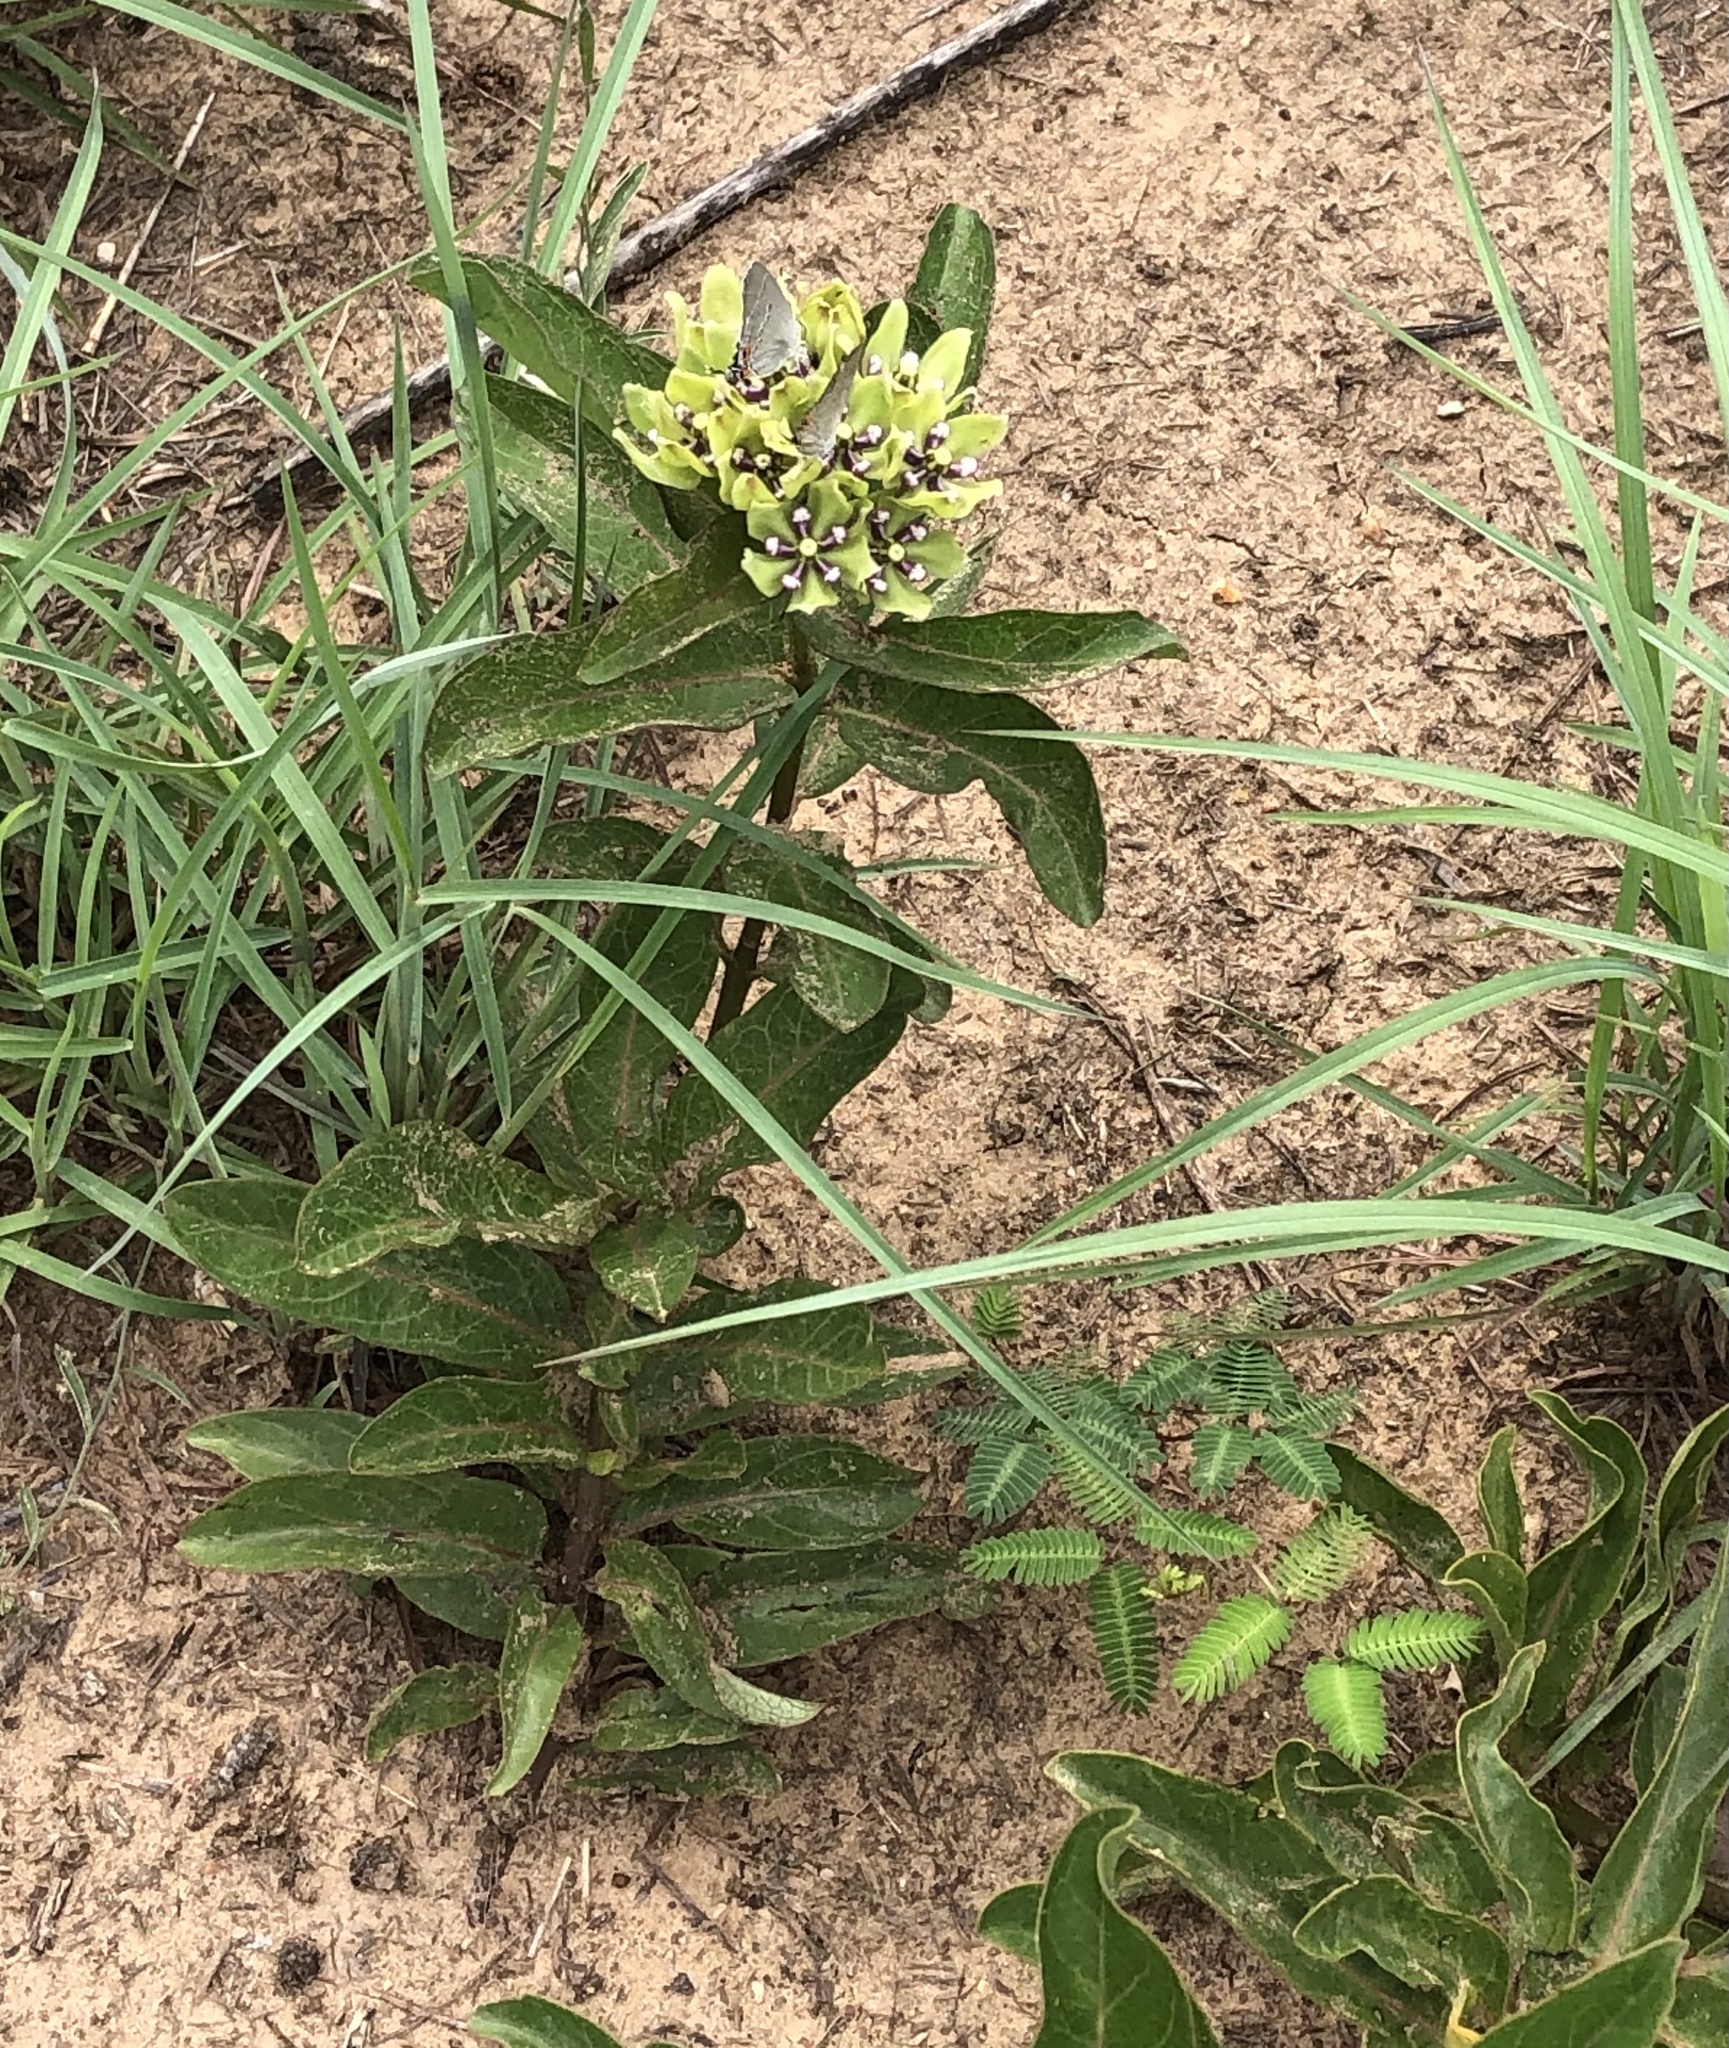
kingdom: Plantae
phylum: Tracheophyta
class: Magnoliopsida
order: Gentianales
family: Apocynaceae
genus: Asclepias
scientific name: Asclepias viridis
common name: Antelope-horns
